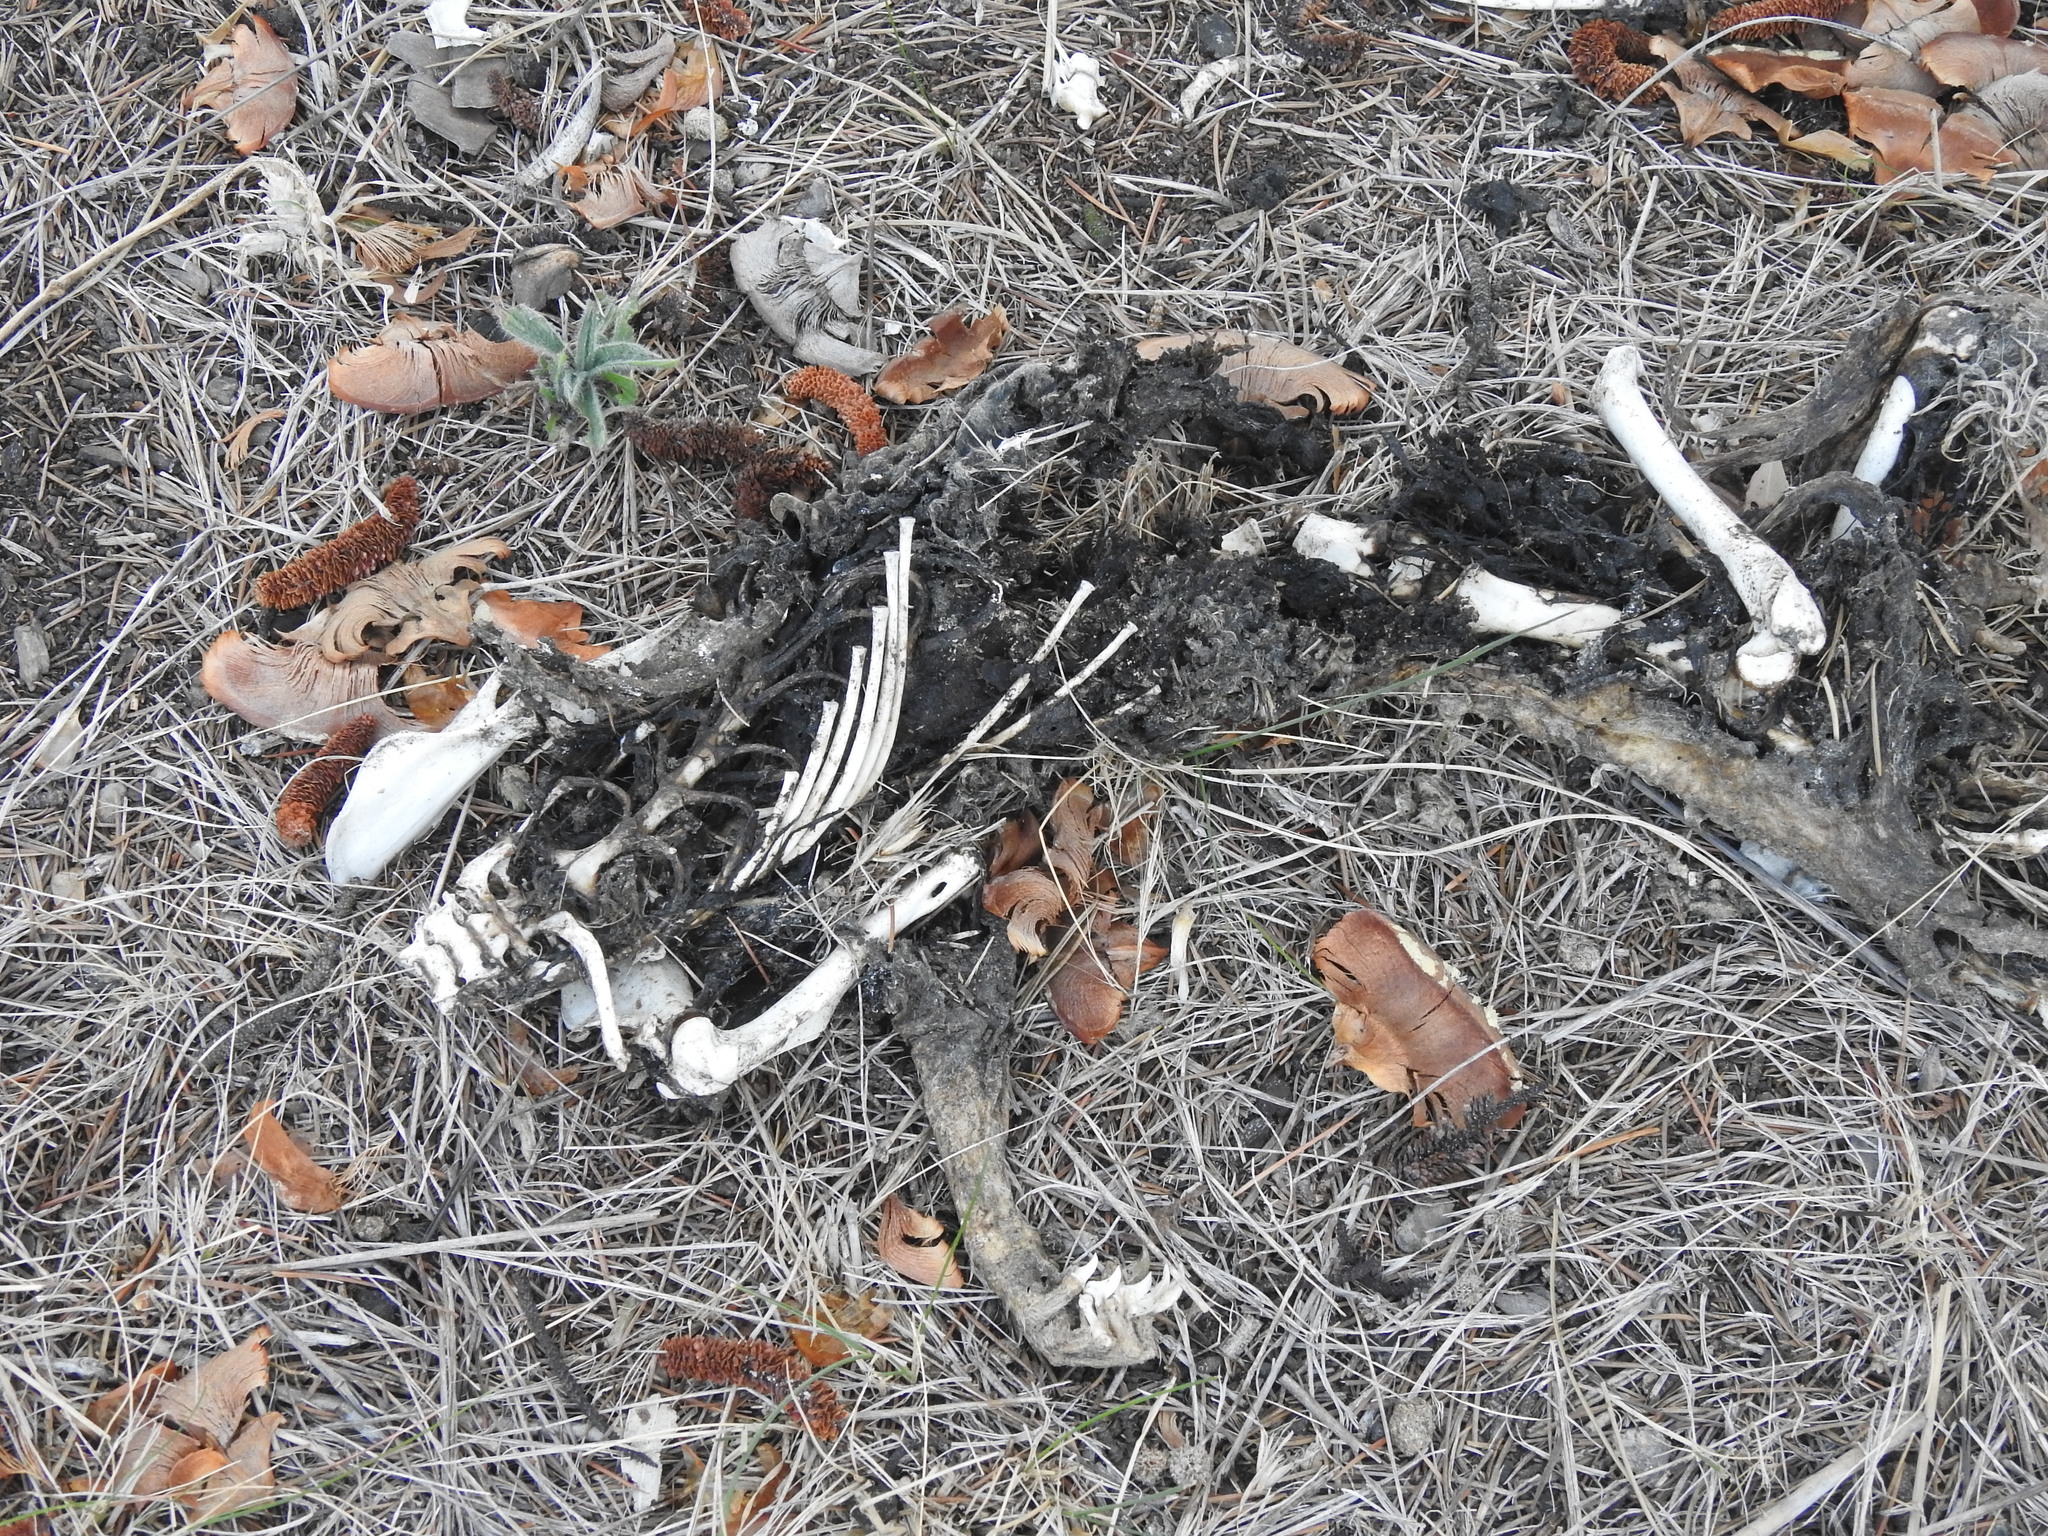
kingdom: Animalia
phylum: Chordata
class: Mammalia
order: Carnivora
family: Felidae
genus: Felis
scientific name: Felis catus
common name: Domestic cat
